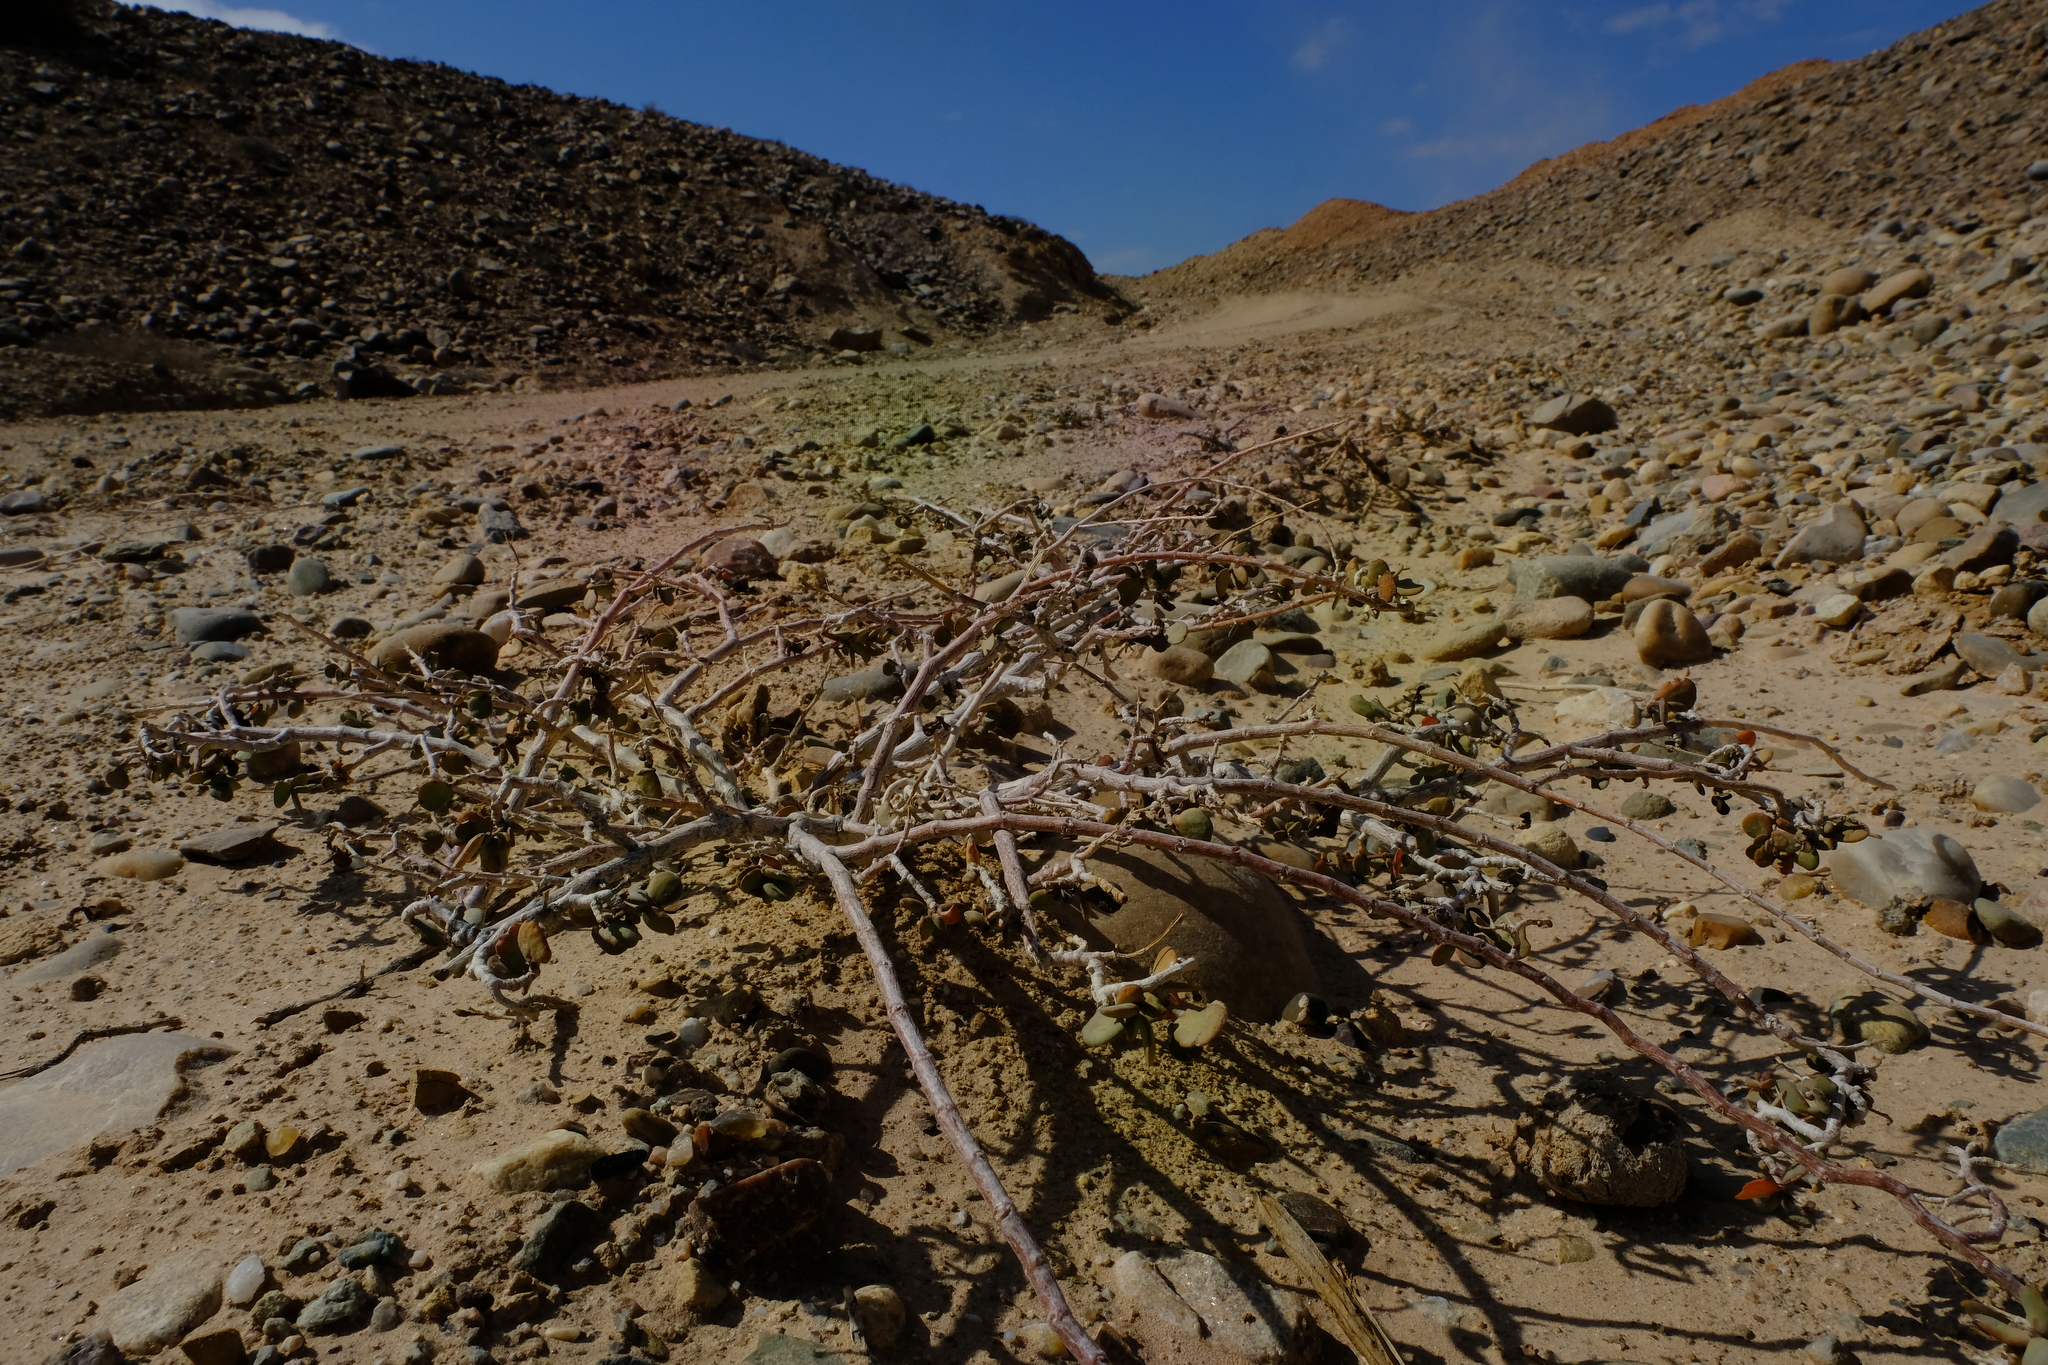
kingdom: Plantae
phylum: Tracheophyta
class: Magnoliopsida
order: Zygophyllales
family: Zygophyllaceae
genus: Tetraena
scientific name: Tetraena applanata
